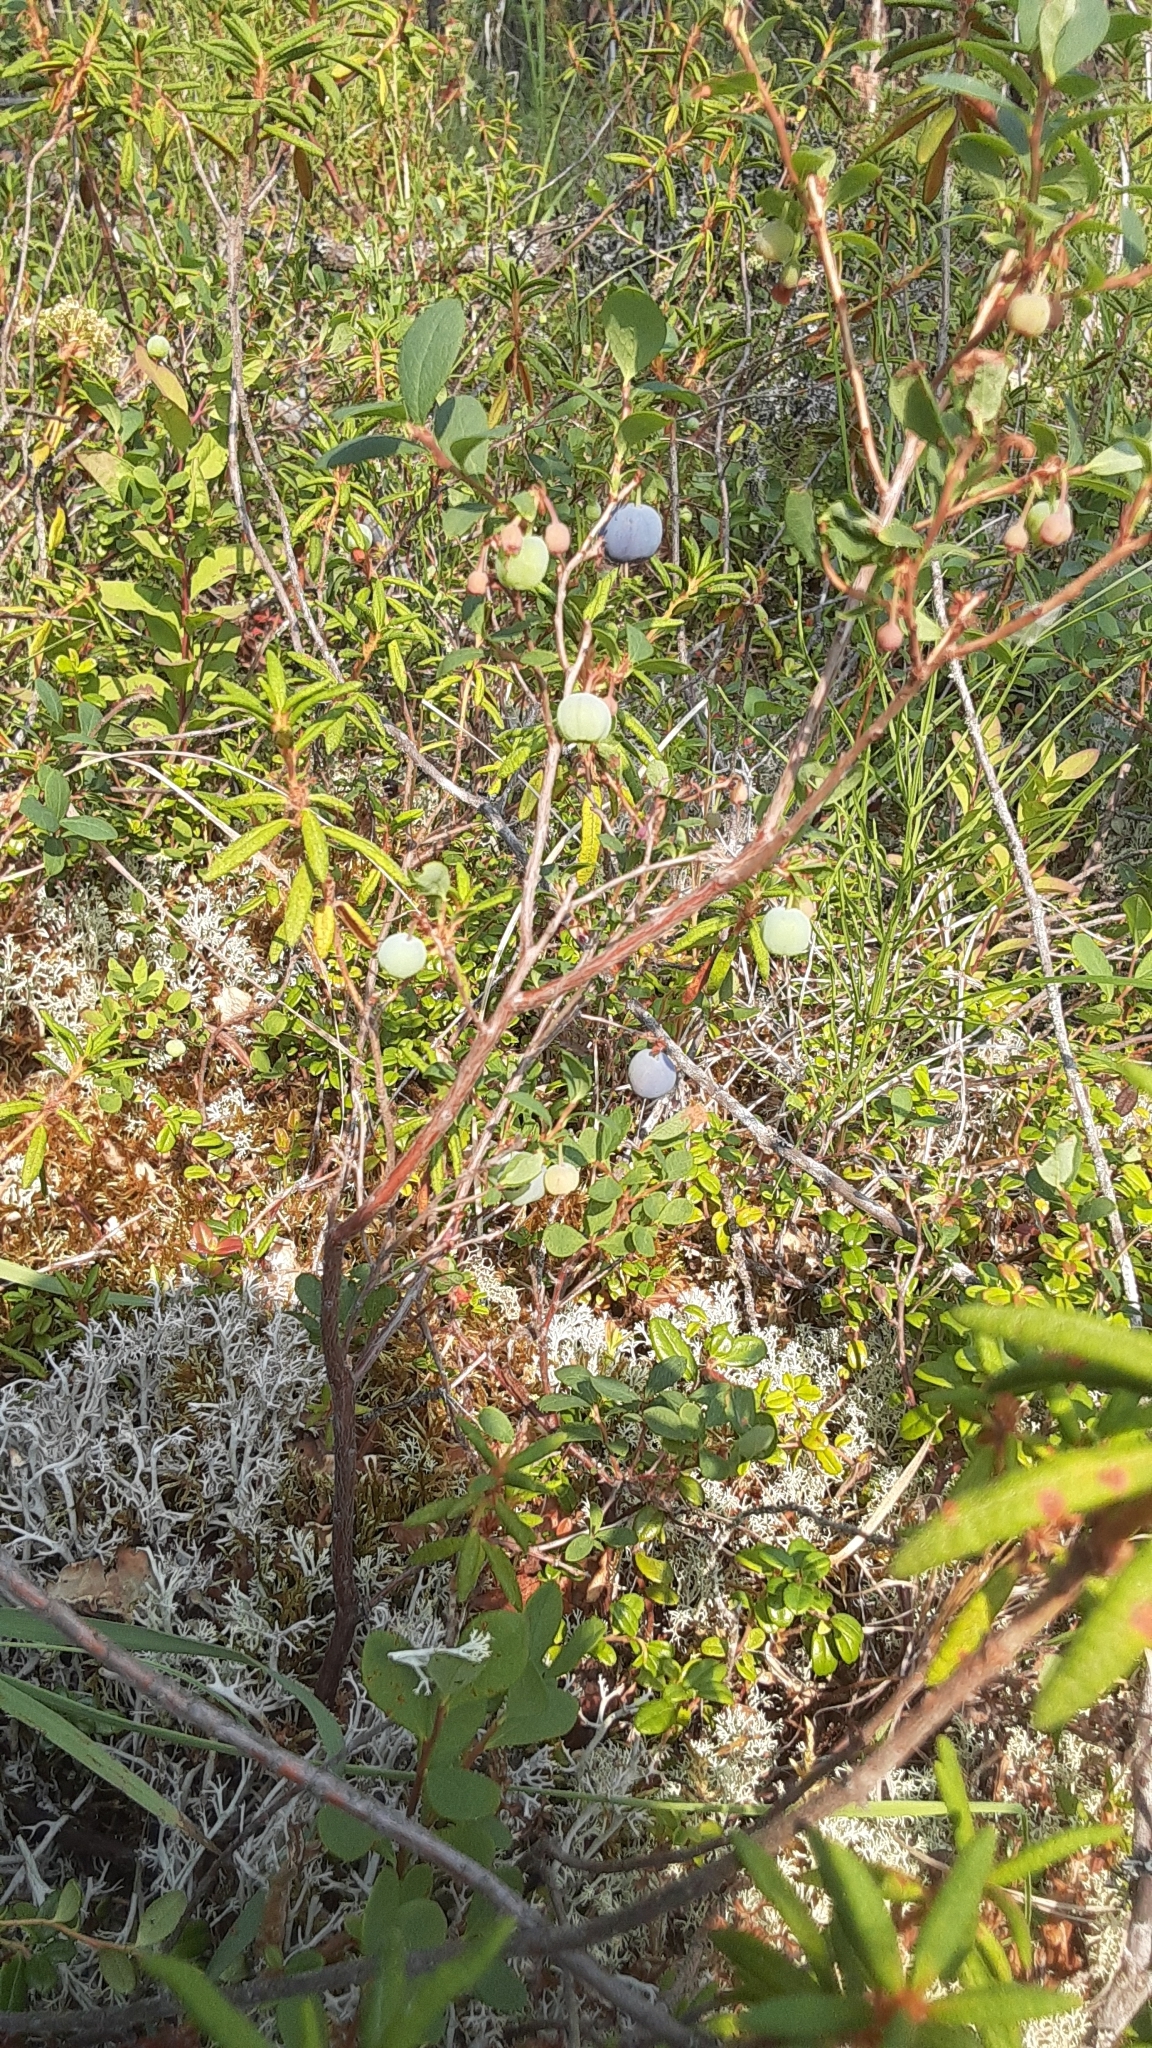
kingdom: Plantae
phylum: Tracheophyta
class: Magnoliopsida
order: Ericales
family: Ericaceae
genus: Vaccinium
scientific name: Vaccinium uliginosum
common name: Bog bilberry
